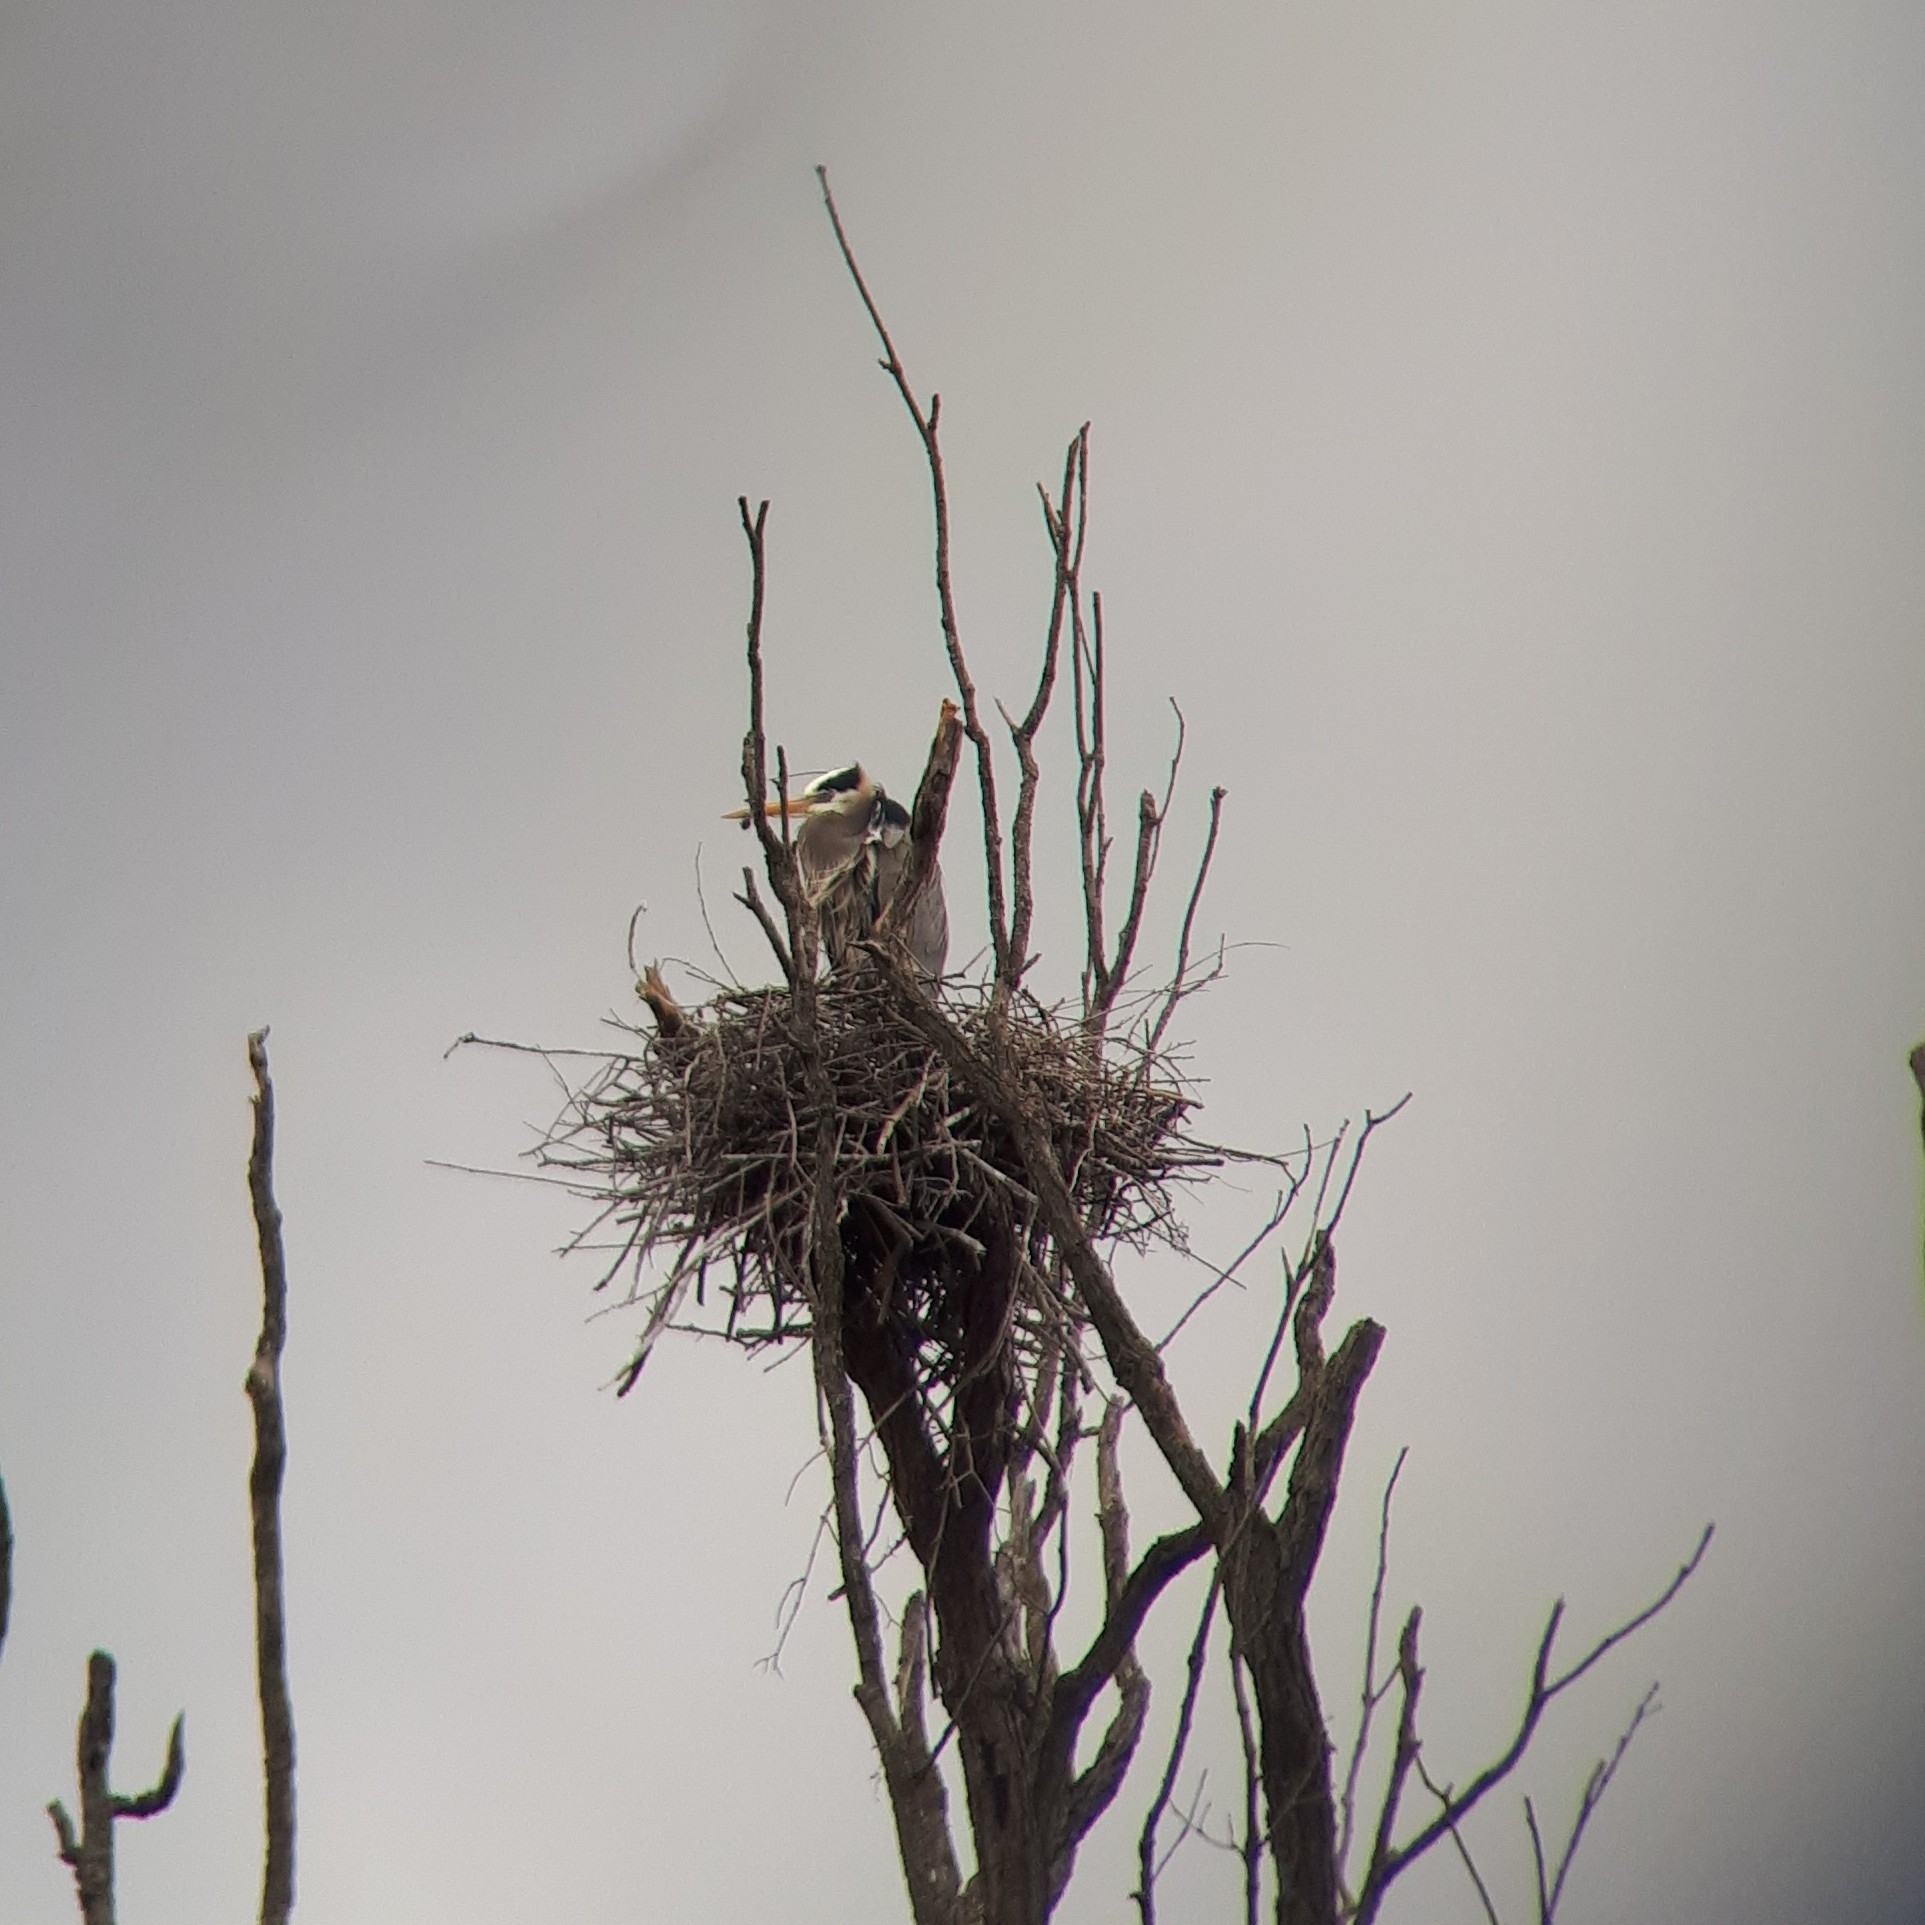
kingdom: Animalia
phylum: Chordata
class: Aves
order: Pelecaniformes
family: Ardeidae
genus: Ardea
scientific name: Ardea herodias
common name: Great blue heron
